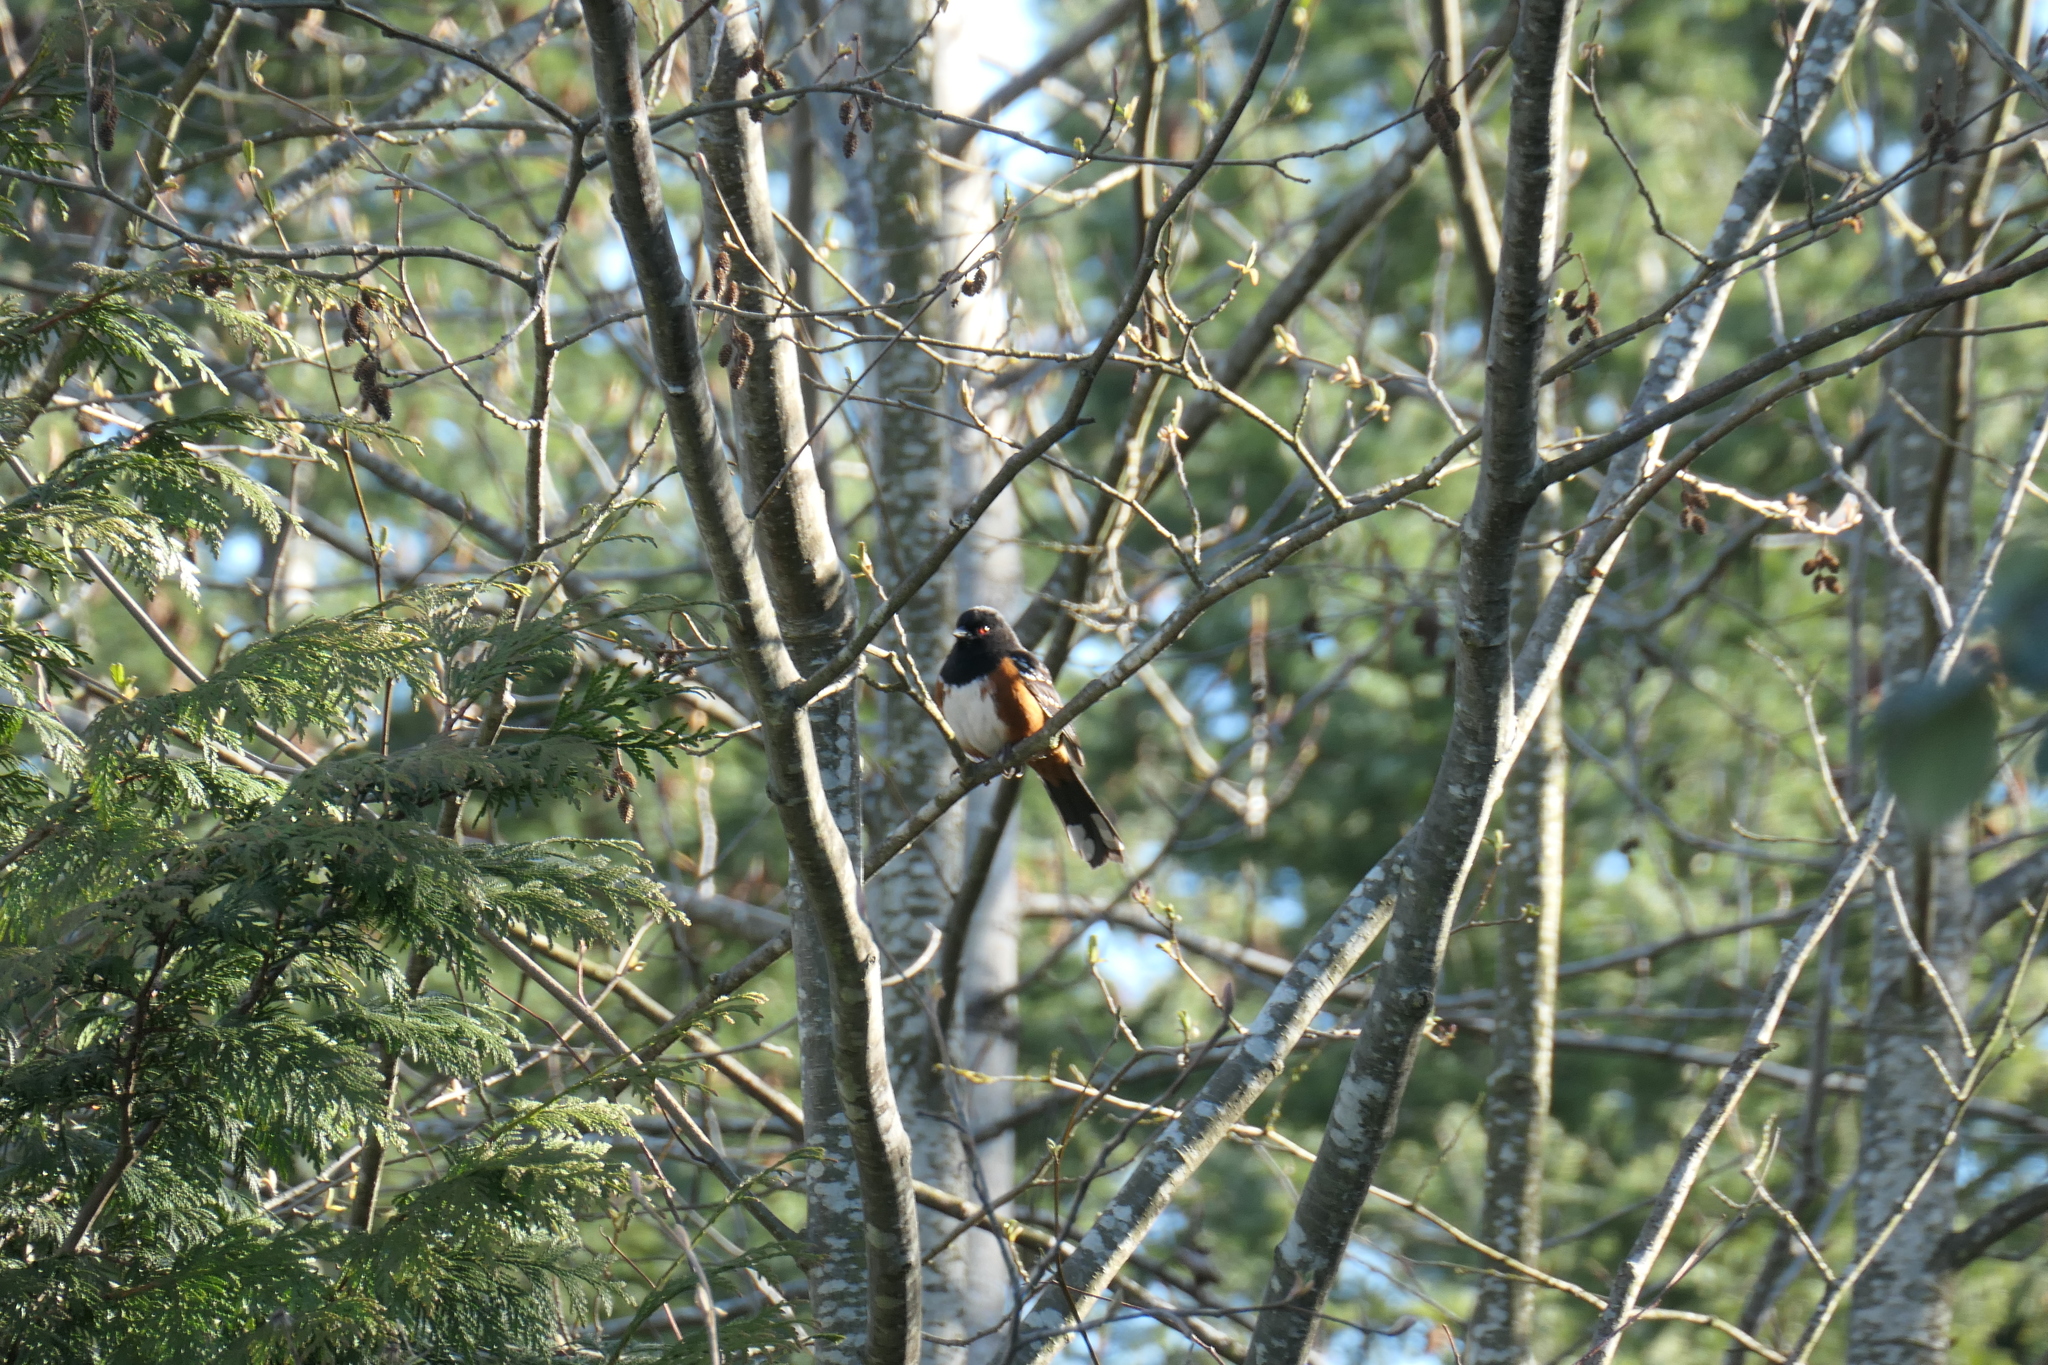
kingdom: Animalia
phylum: Chordata
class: Aves
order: Passeriformes
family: Passerellidae
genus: Pipilo
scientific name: Pipilo maculatus
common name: Spotted towhee
